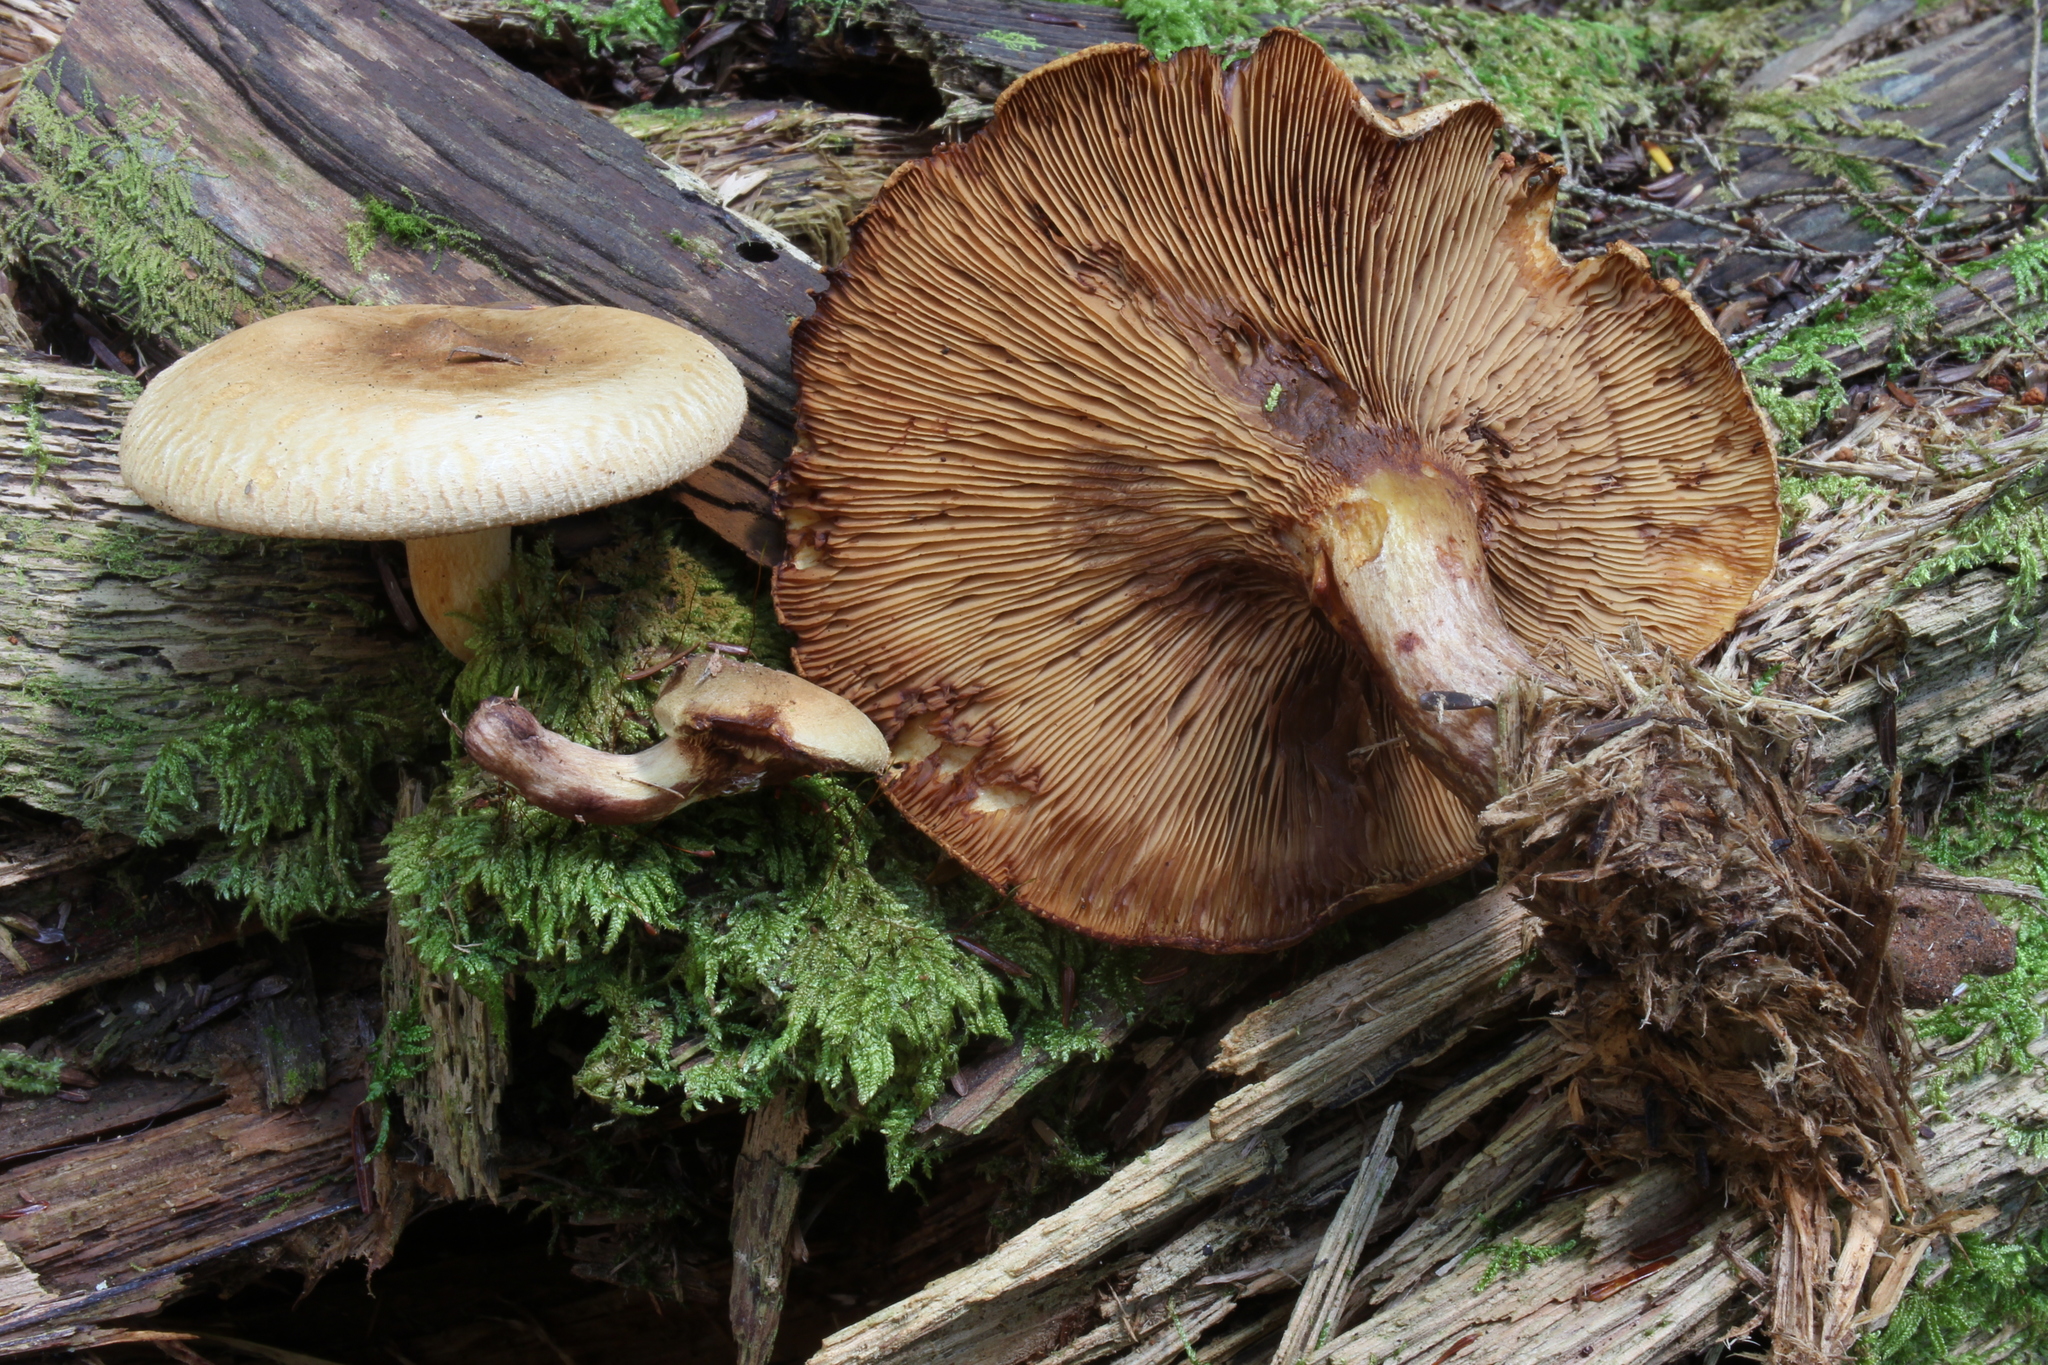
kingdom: Fungi
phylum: Basidiomycota
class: Agaricomycetes
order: Boletales
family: Paxillaceae
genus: Paxillus
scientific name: Paxillus involutus
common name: Brown roll rim
